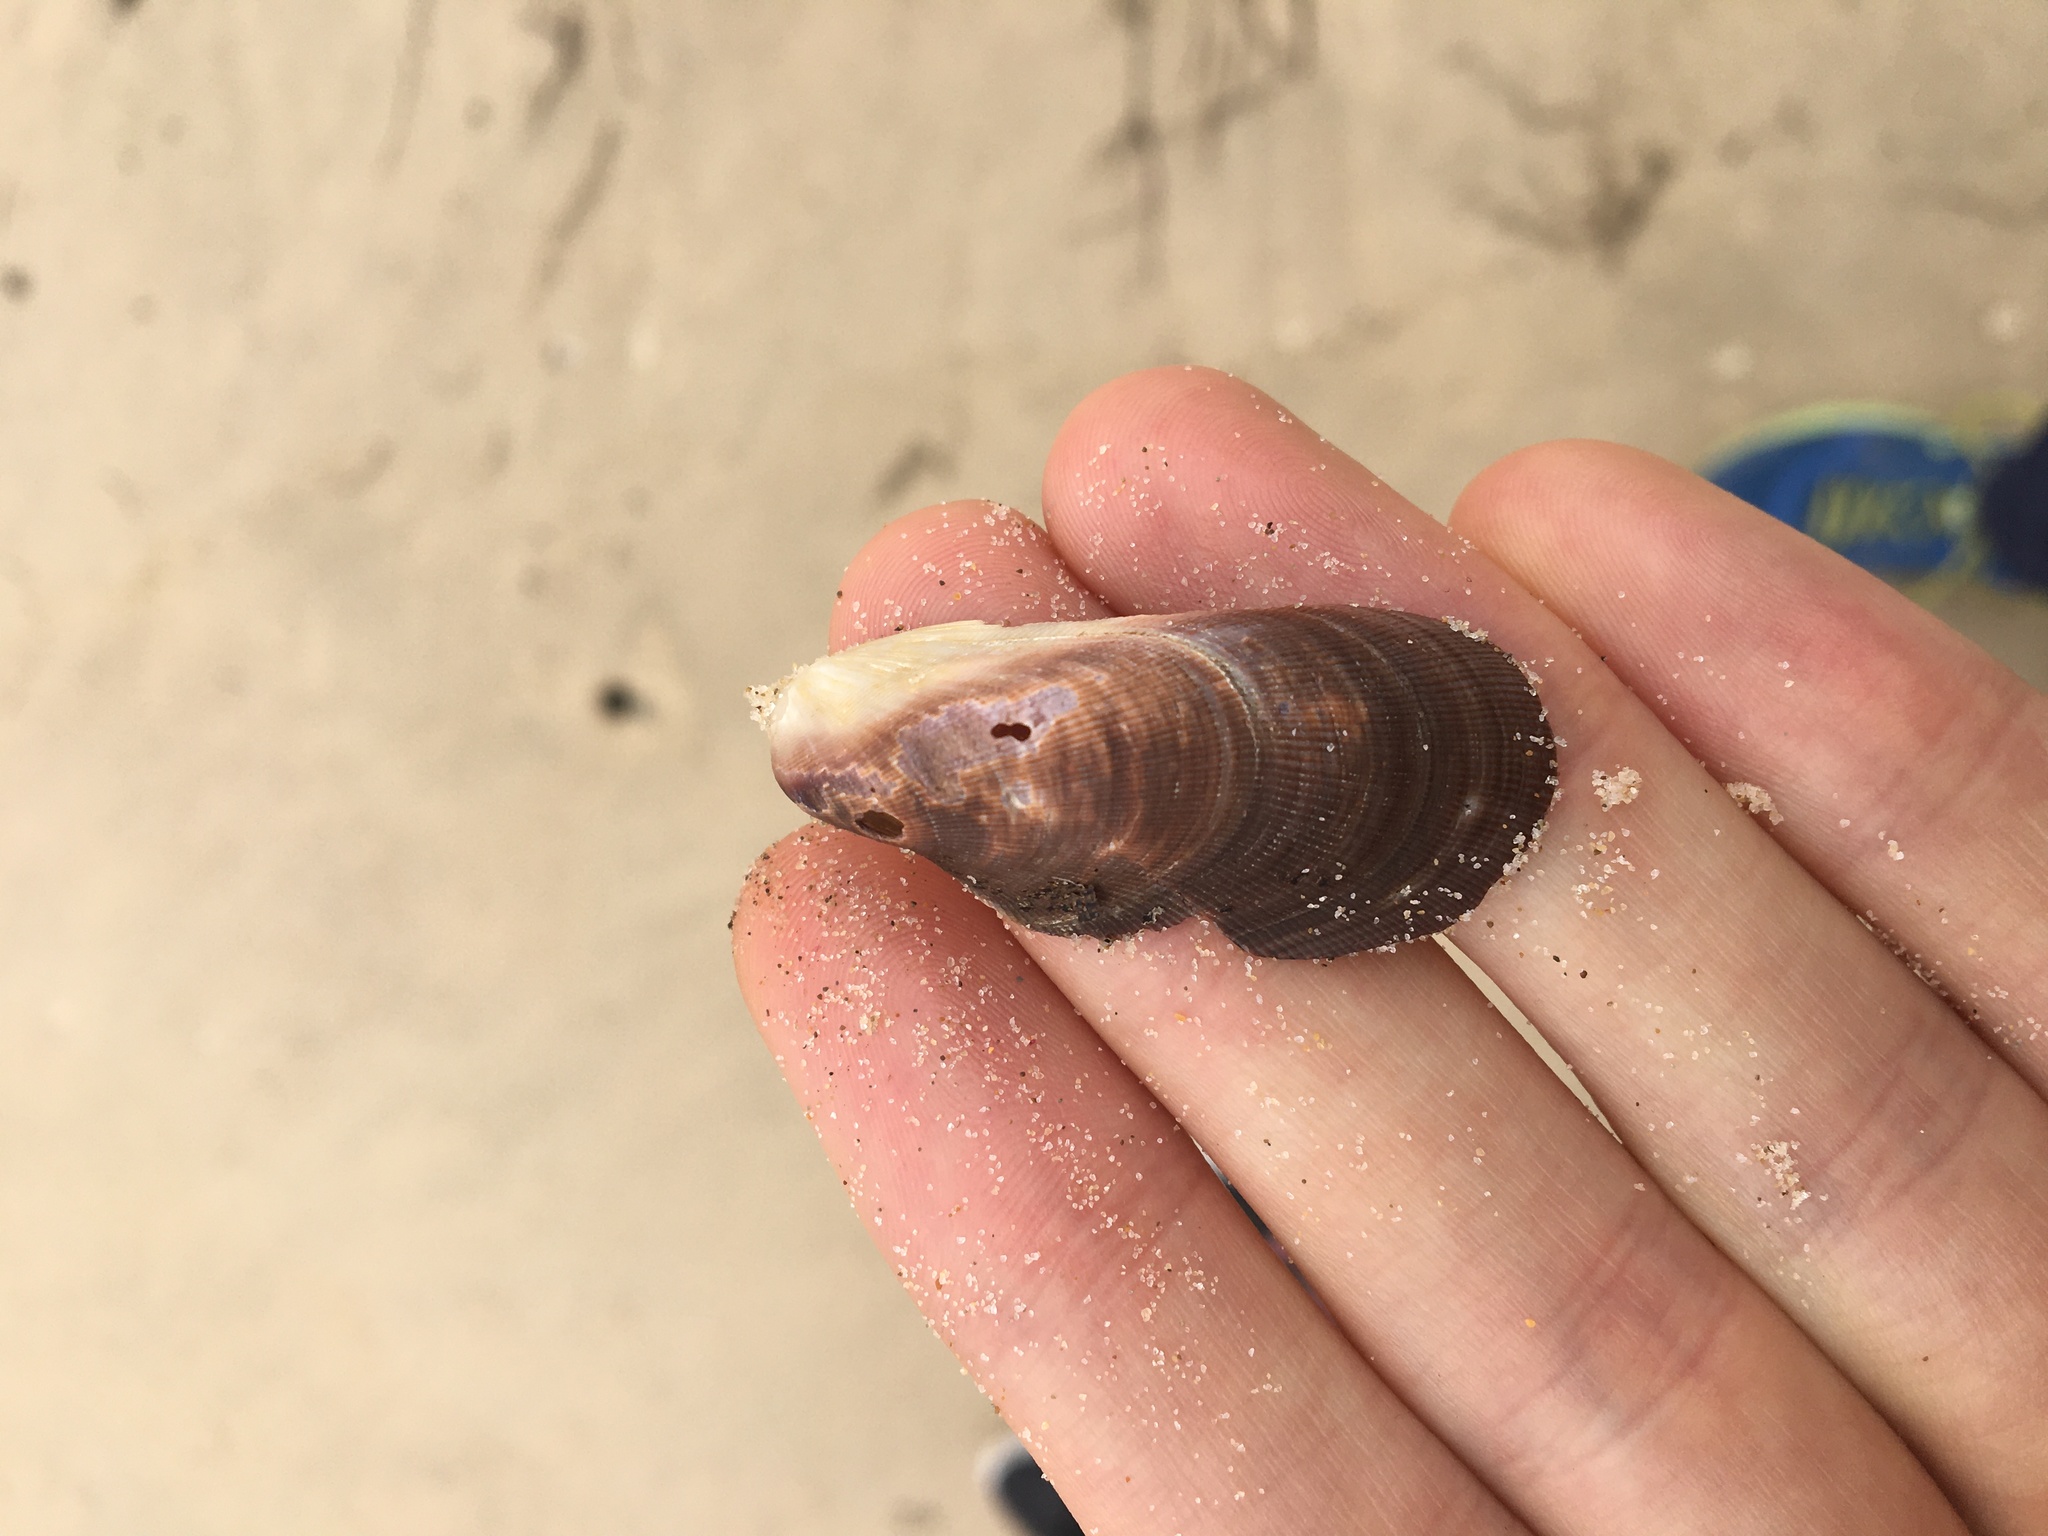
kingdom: Animalia
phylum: Mollusca
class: Bivalvia
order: Mytilida
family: Mytilidae
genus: Trichomya
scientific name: Trichomya hirsuta
